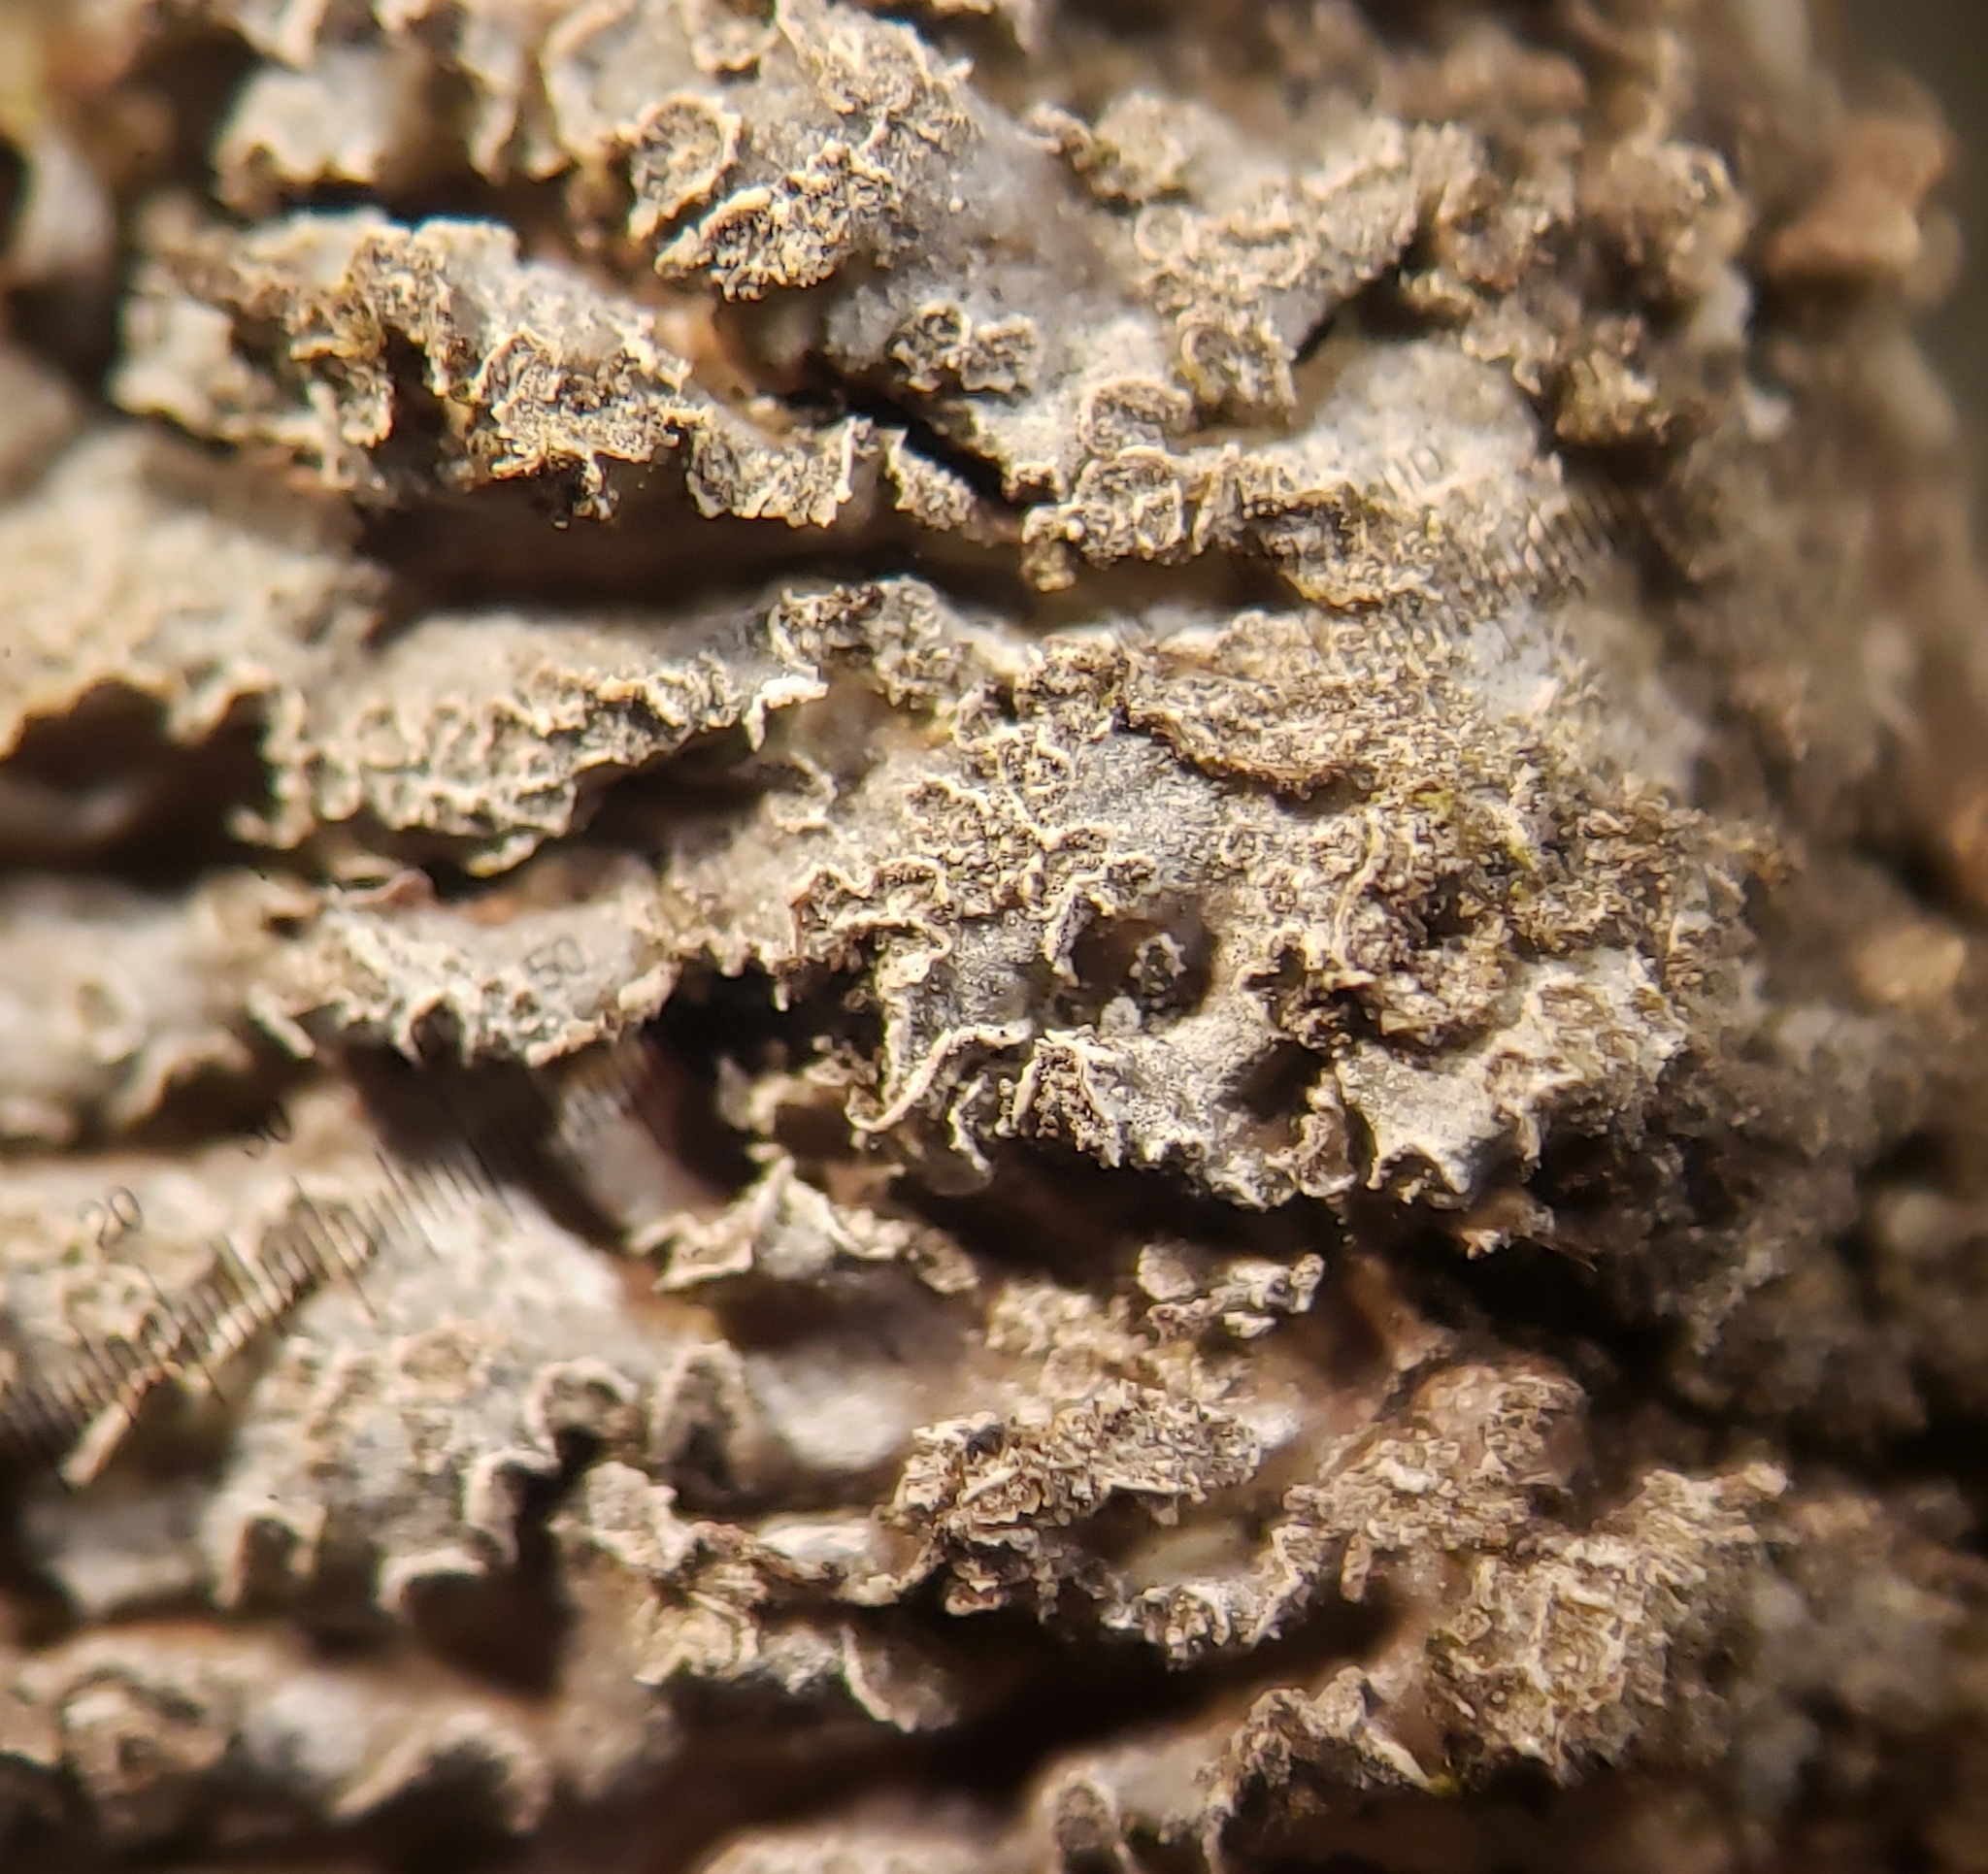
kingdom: Fungi
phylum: Ascomycota
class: Lecanoromycetes
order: Caliciales
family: Physciaceae
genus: Physconia
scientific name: Physconia enteroxantha
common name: Yellow-edged frost lichen
